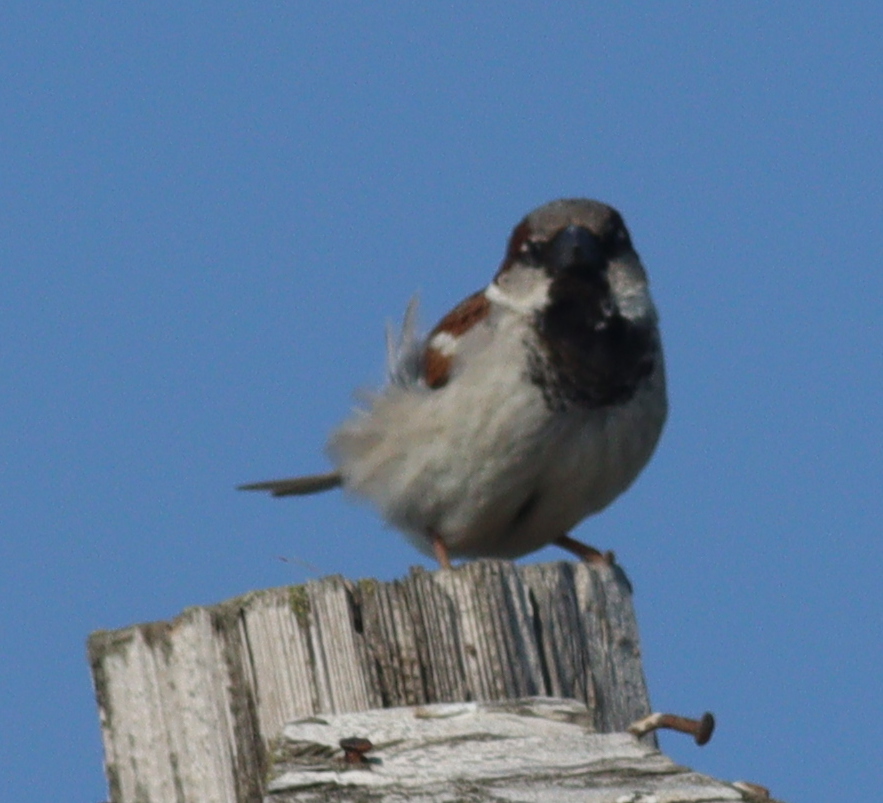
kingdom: Animalia
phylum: Chordata
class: Aves
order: Passeriformes
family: Passeridae
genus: Passer
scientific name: Passer domesticus
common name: House sparrow
